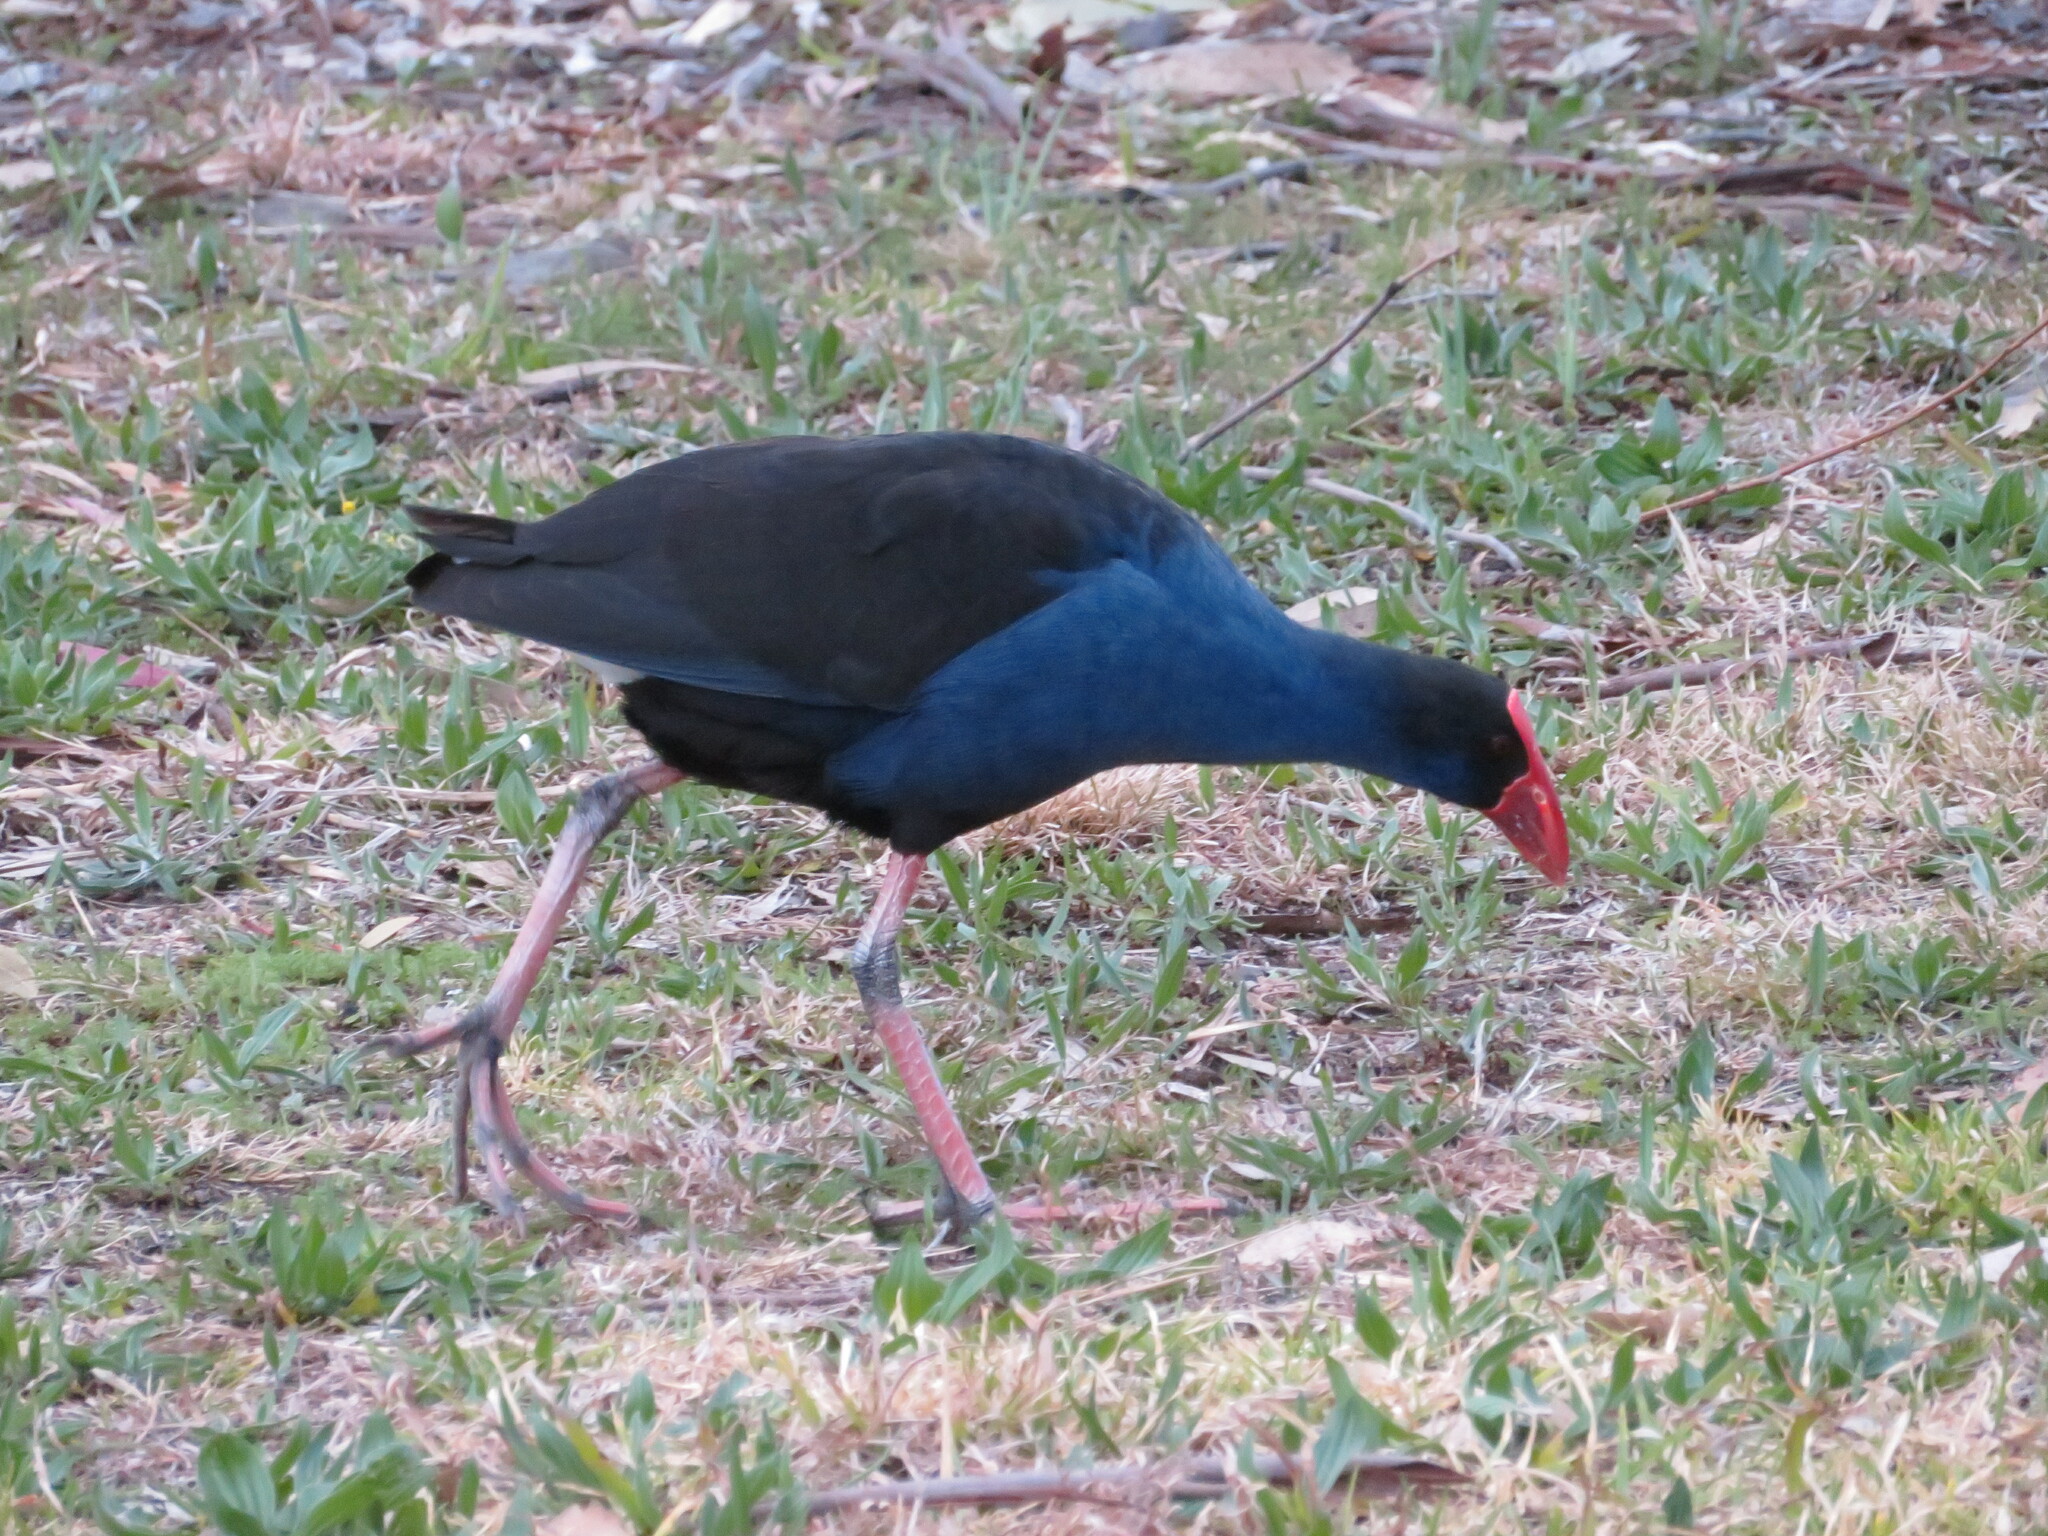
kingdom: Animalia
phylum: Chordata
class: Aves
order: Gruiformes
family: Rallidae
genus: Porphyrio
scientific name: Porphyrio melanotus
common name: Australasian swamphen
